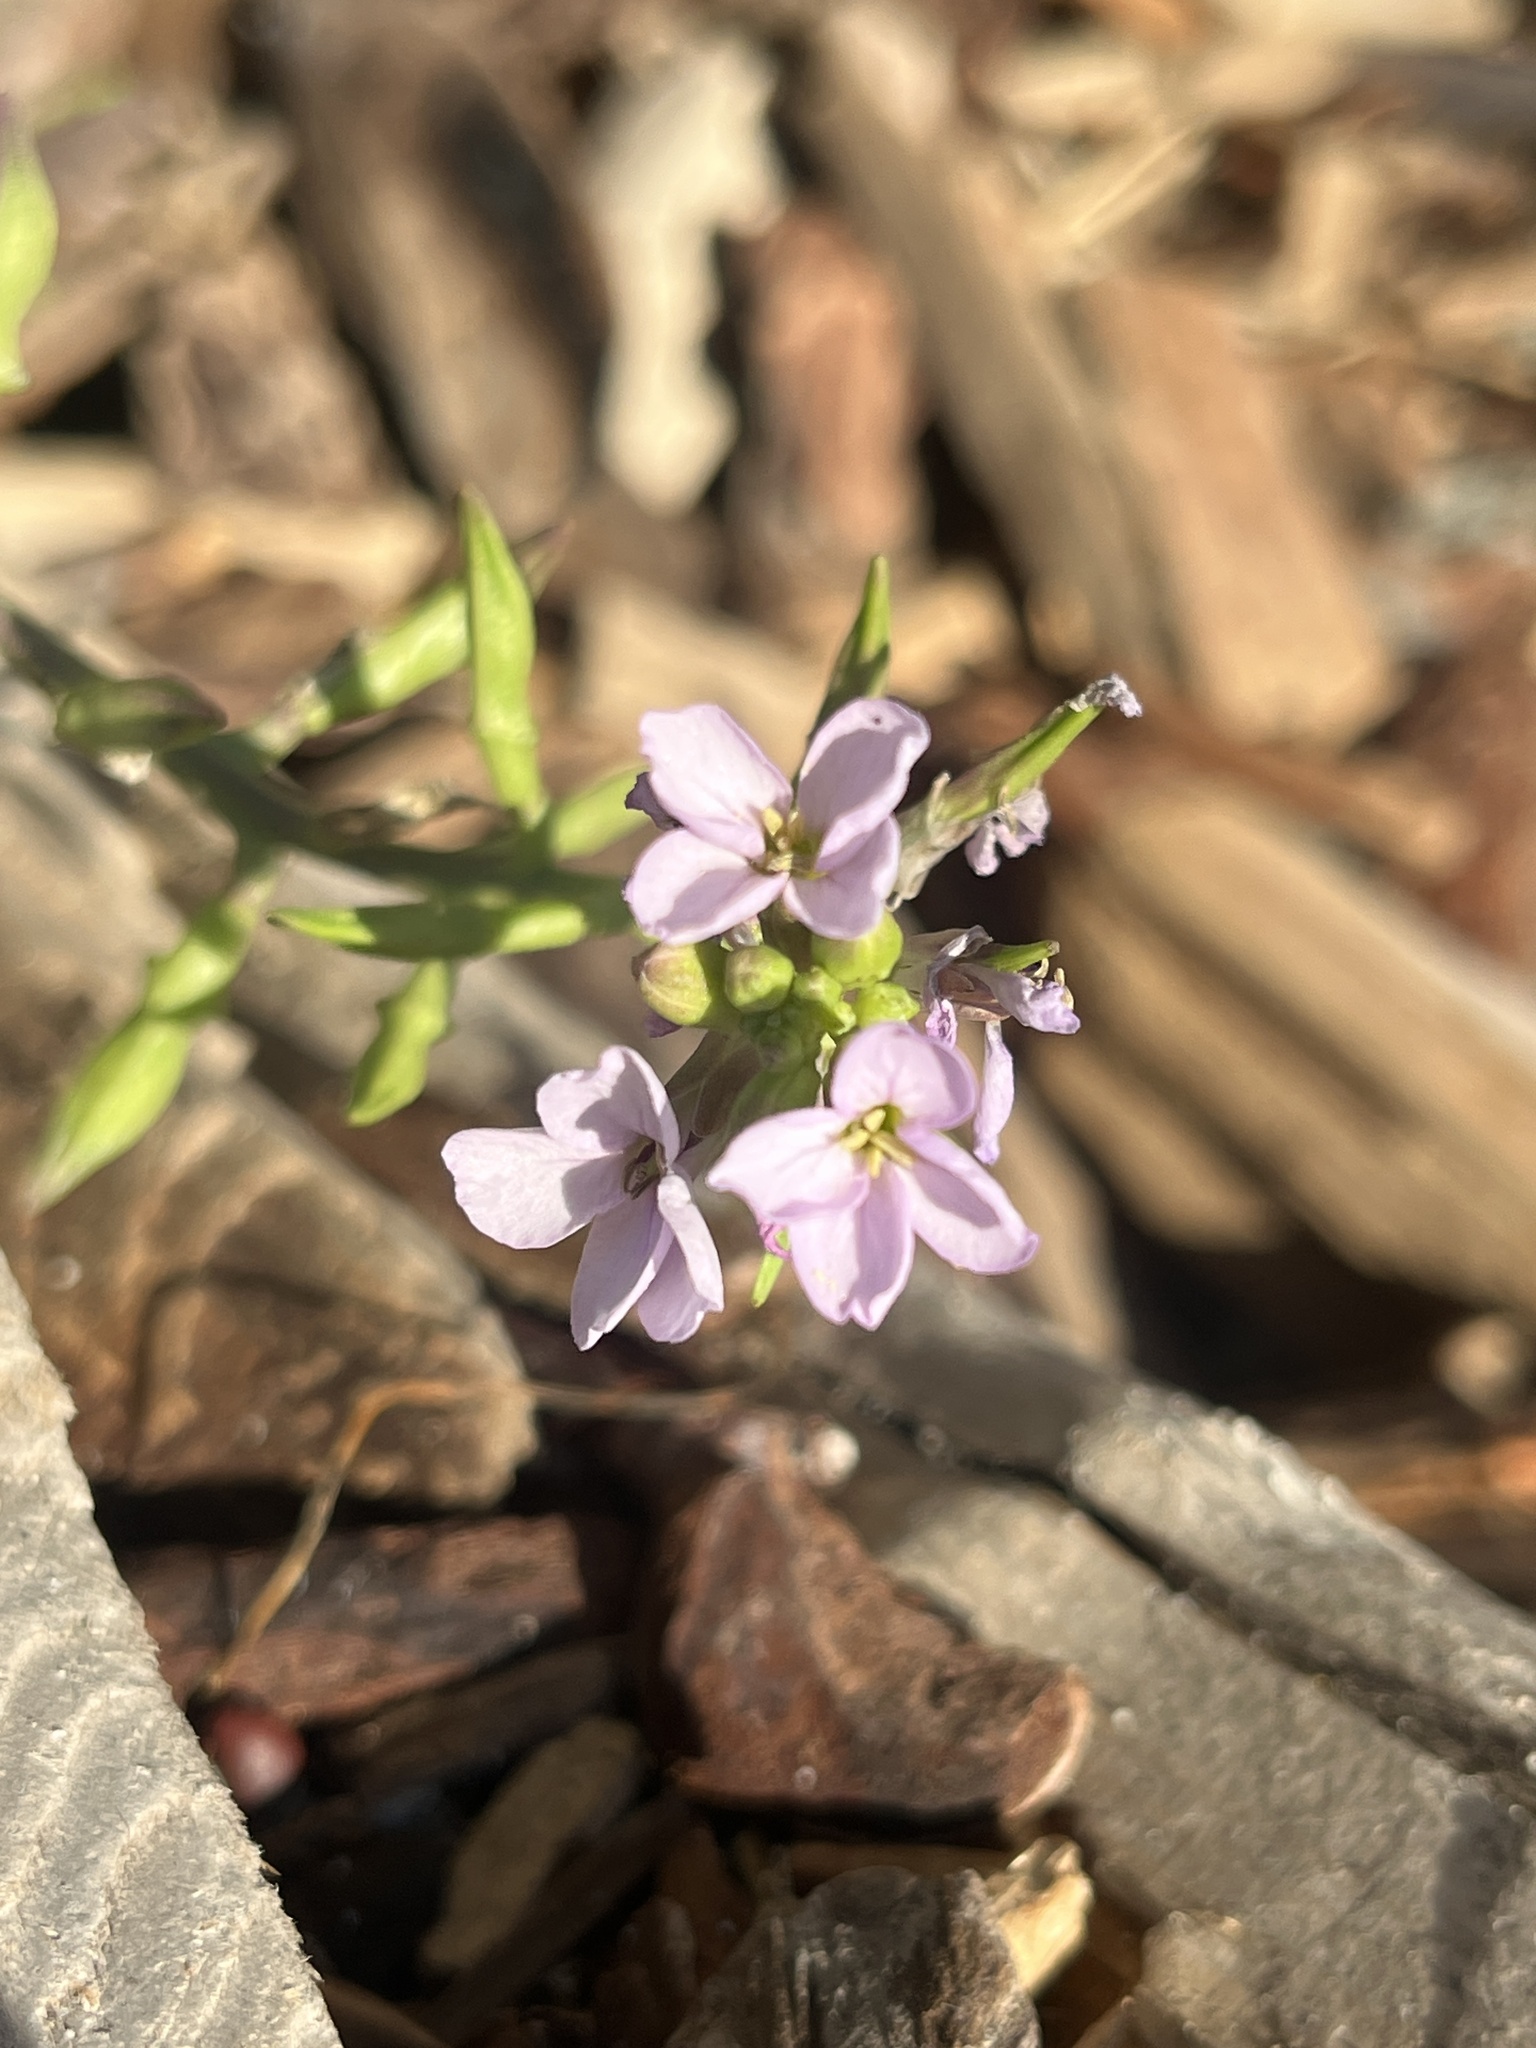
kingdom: Plantae
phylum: Tracheophyta
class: Magnoliopsida
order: Brassicales
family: Brassicaceae
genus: Cakile
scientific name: Cakile maritima
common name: Sea rocket
